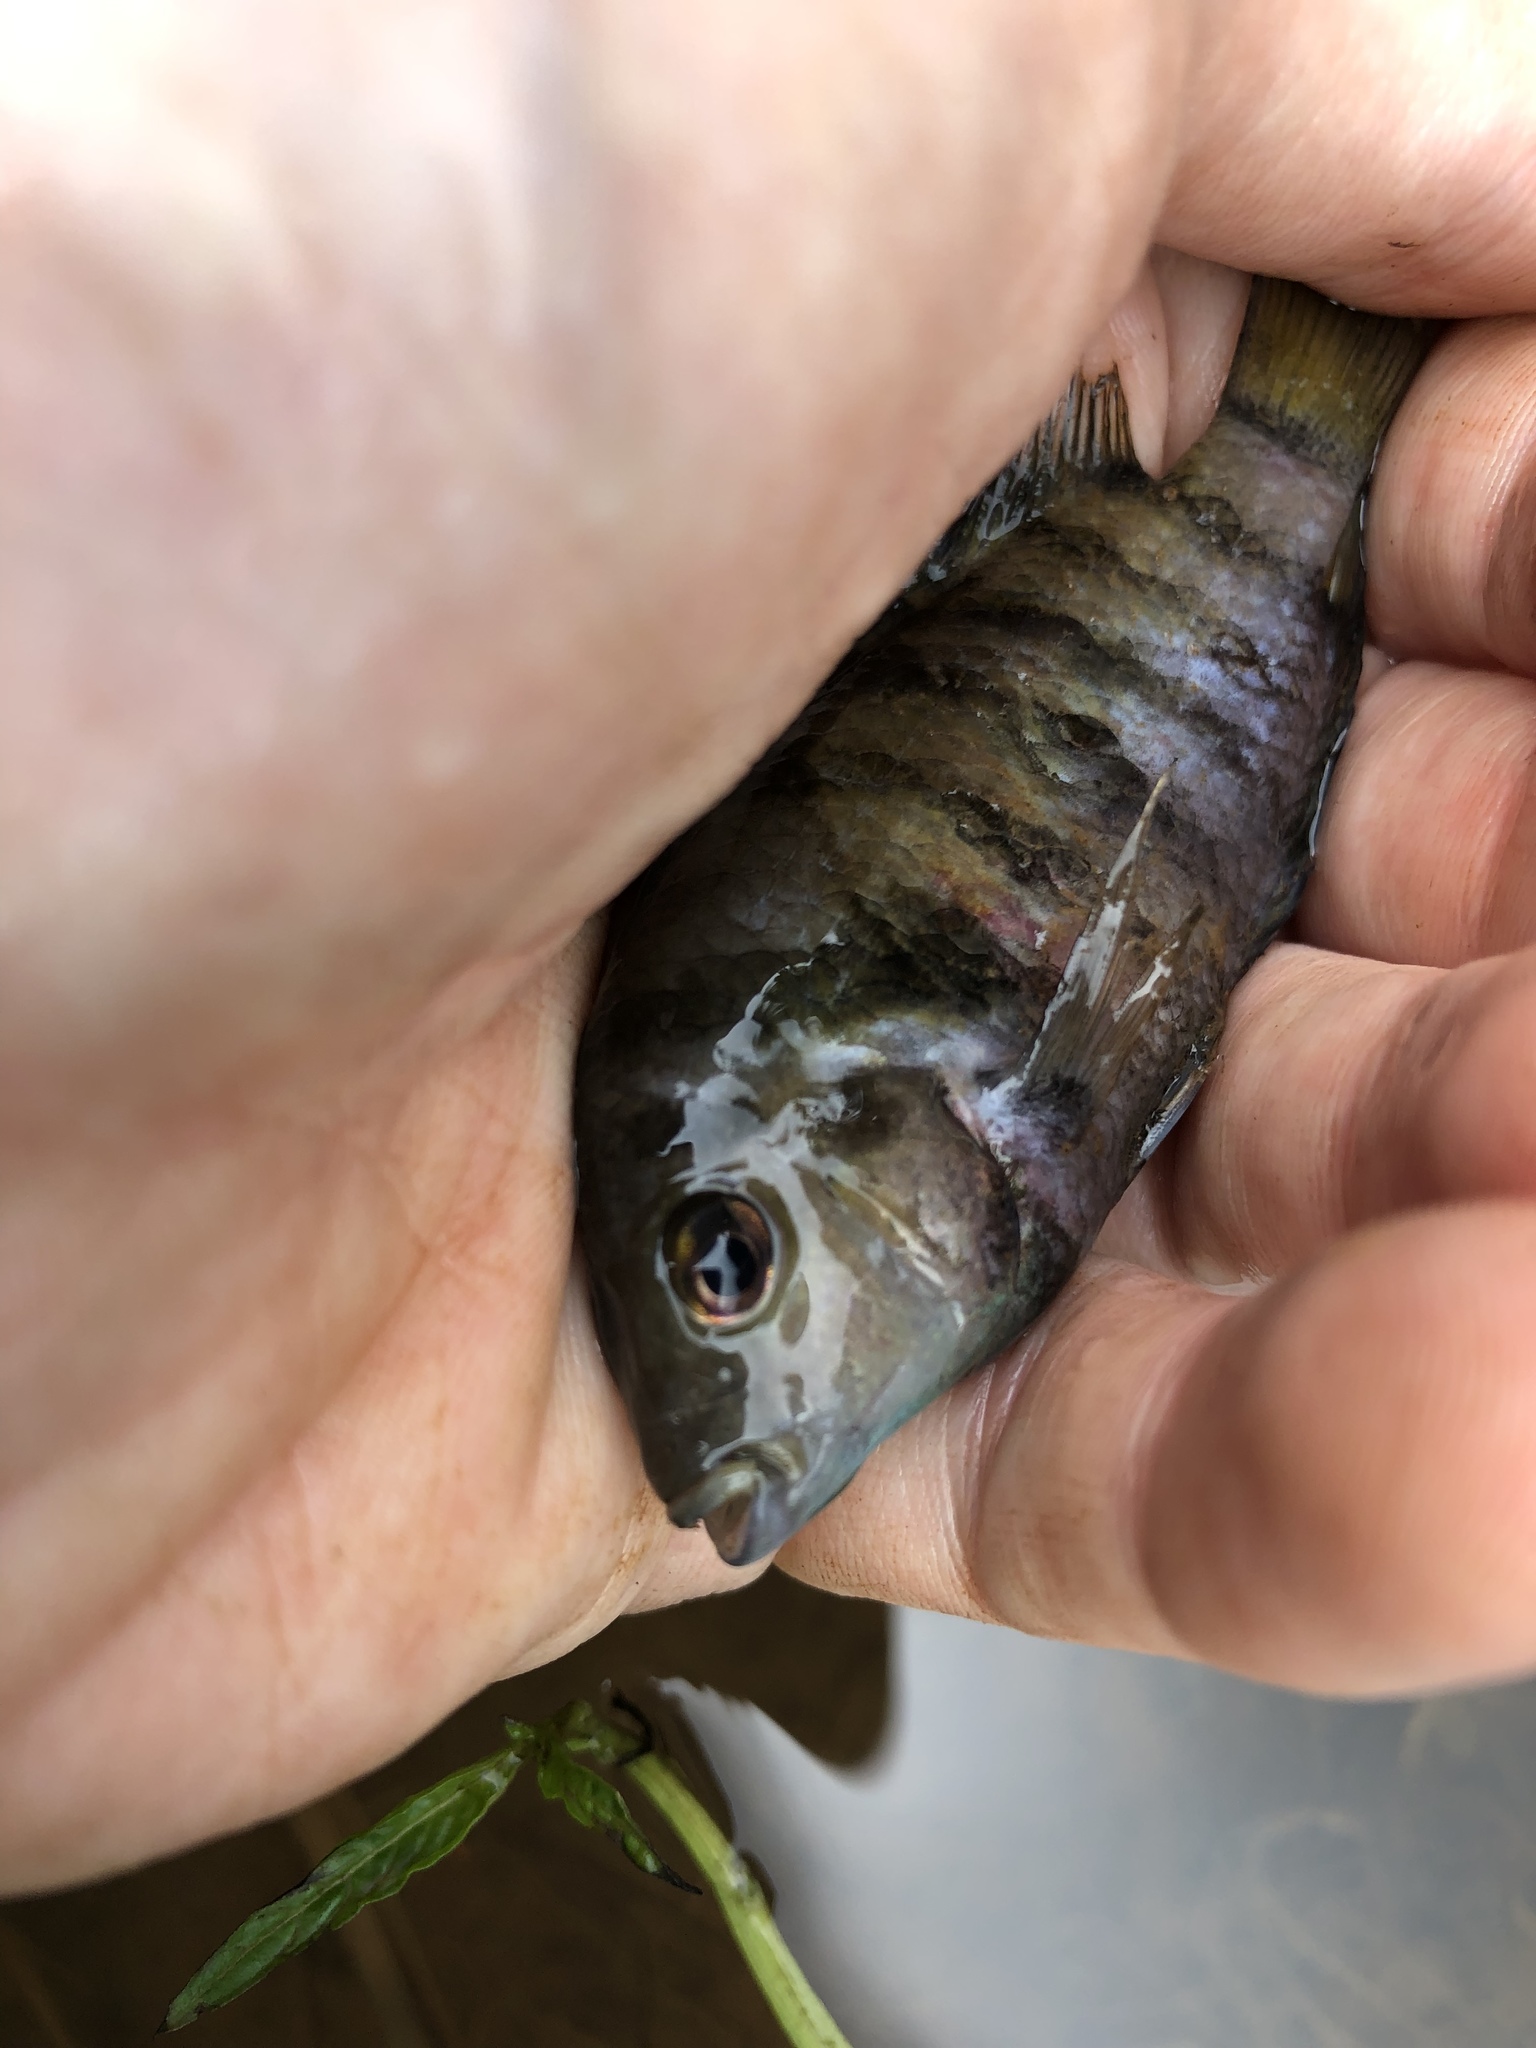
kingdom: Animalia
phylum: Chordata
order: Perciformes
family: Cichlidae
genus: Amatitlania
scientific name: Amatitlania nigrofasciata
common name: Convict cichlid
